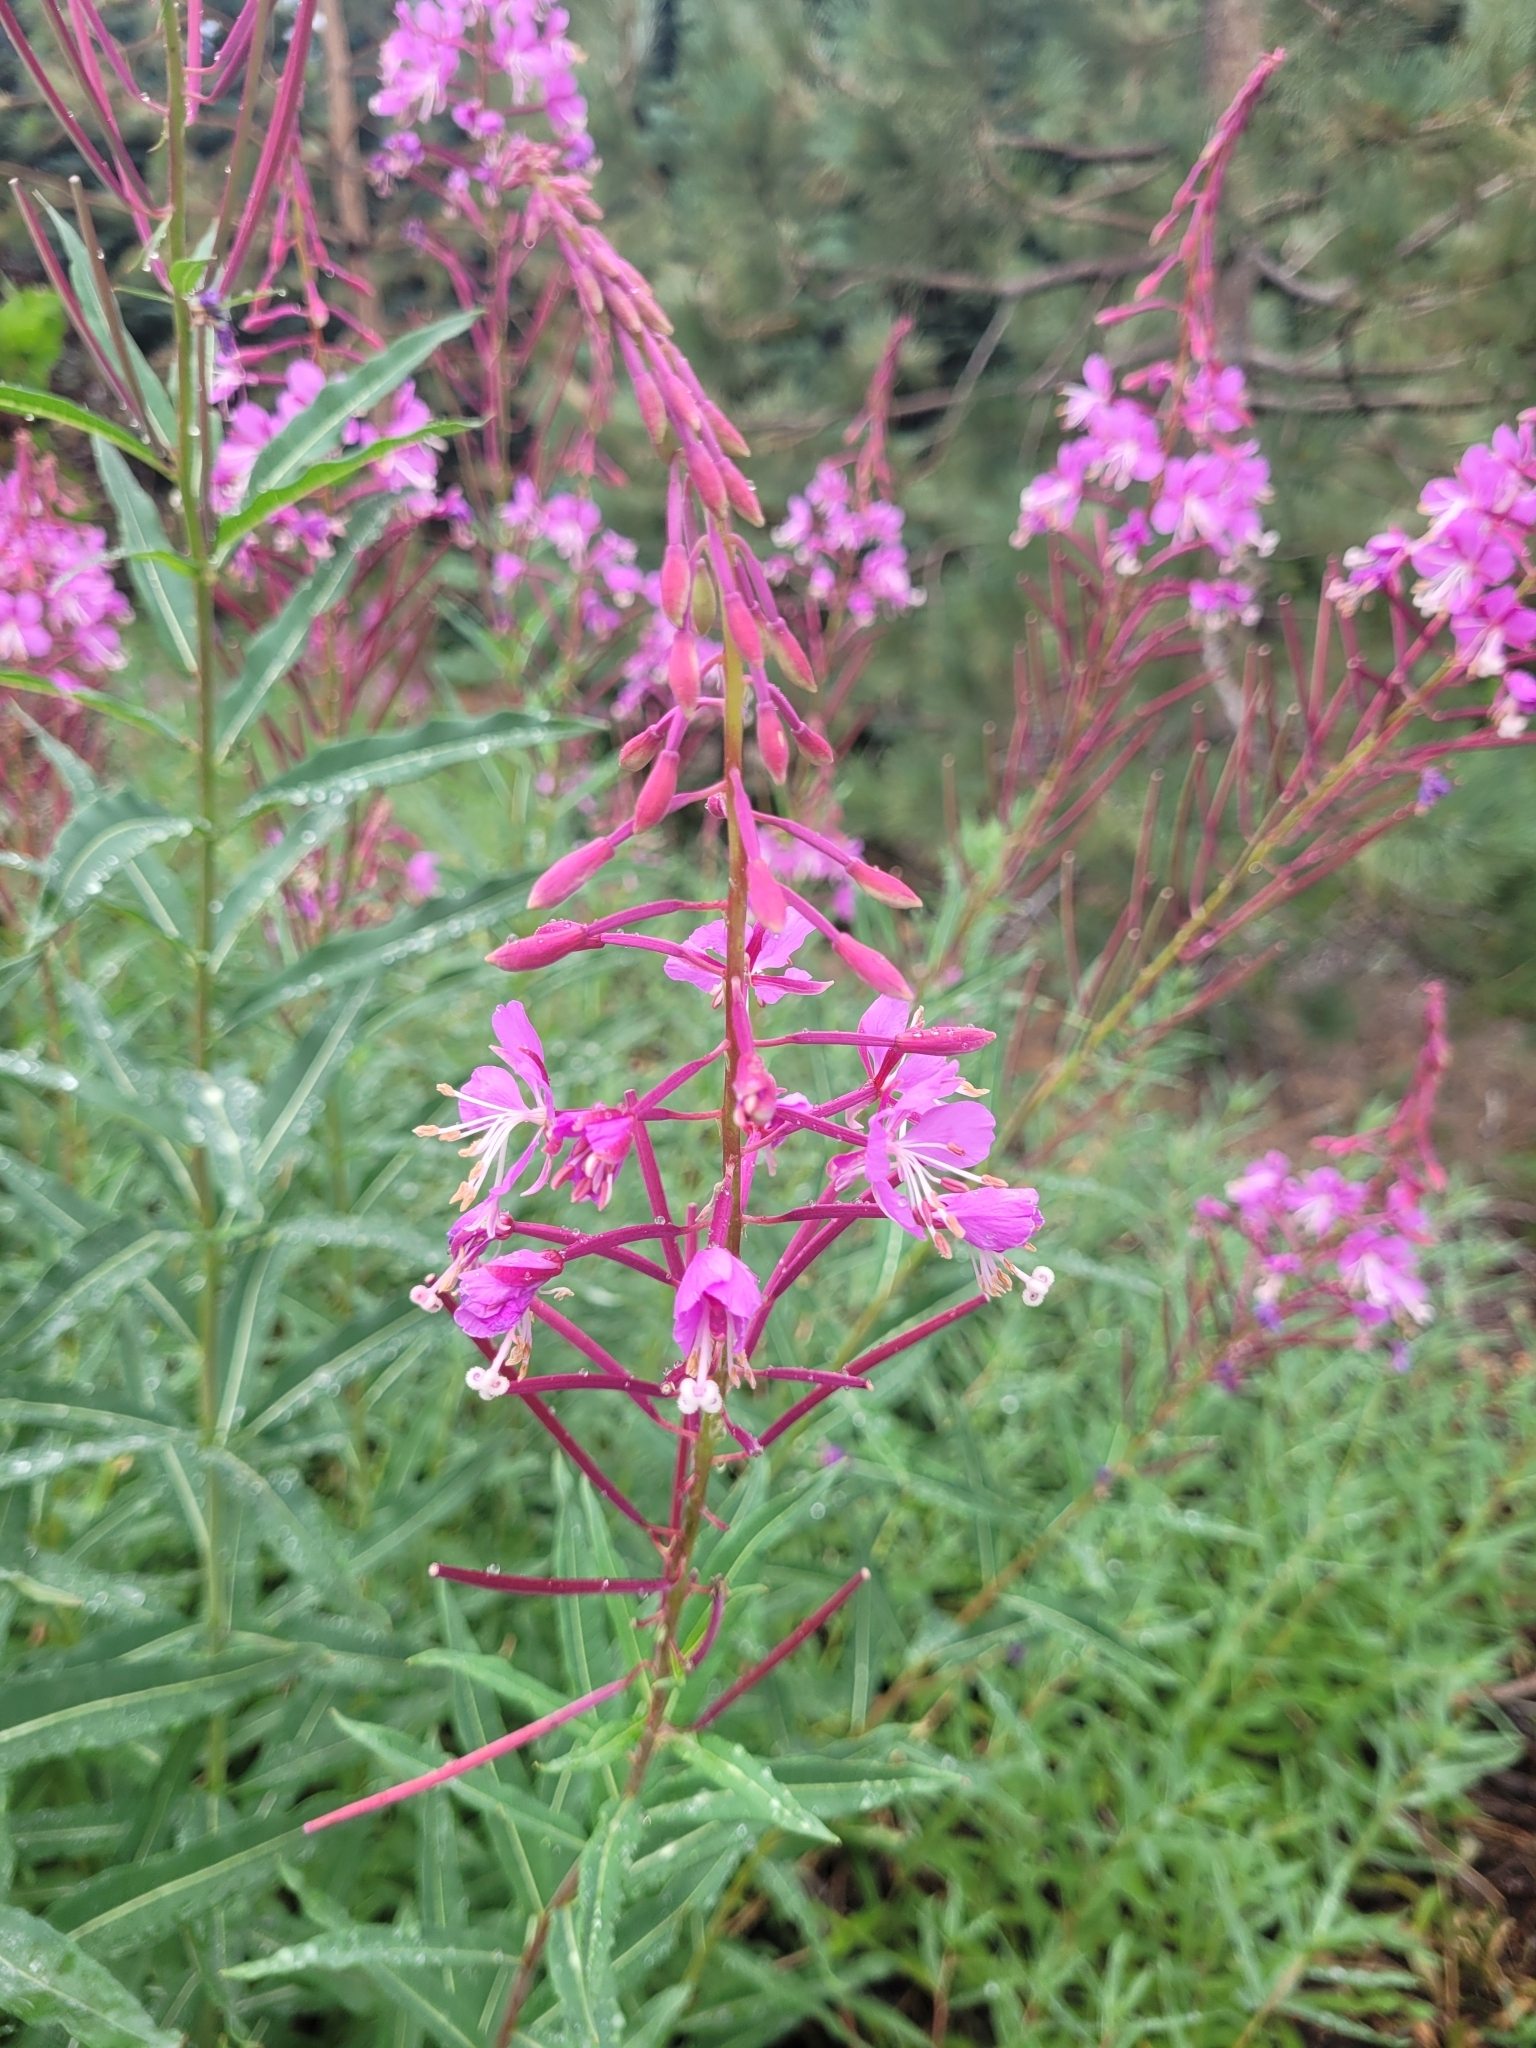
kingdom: Plantae
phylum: Tracheophyta
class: Magnoliopsida
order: Myrtales
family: Onagraceae
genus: Chamaenerion
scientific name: Chamaenerion angustifolium
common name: Fireweed
